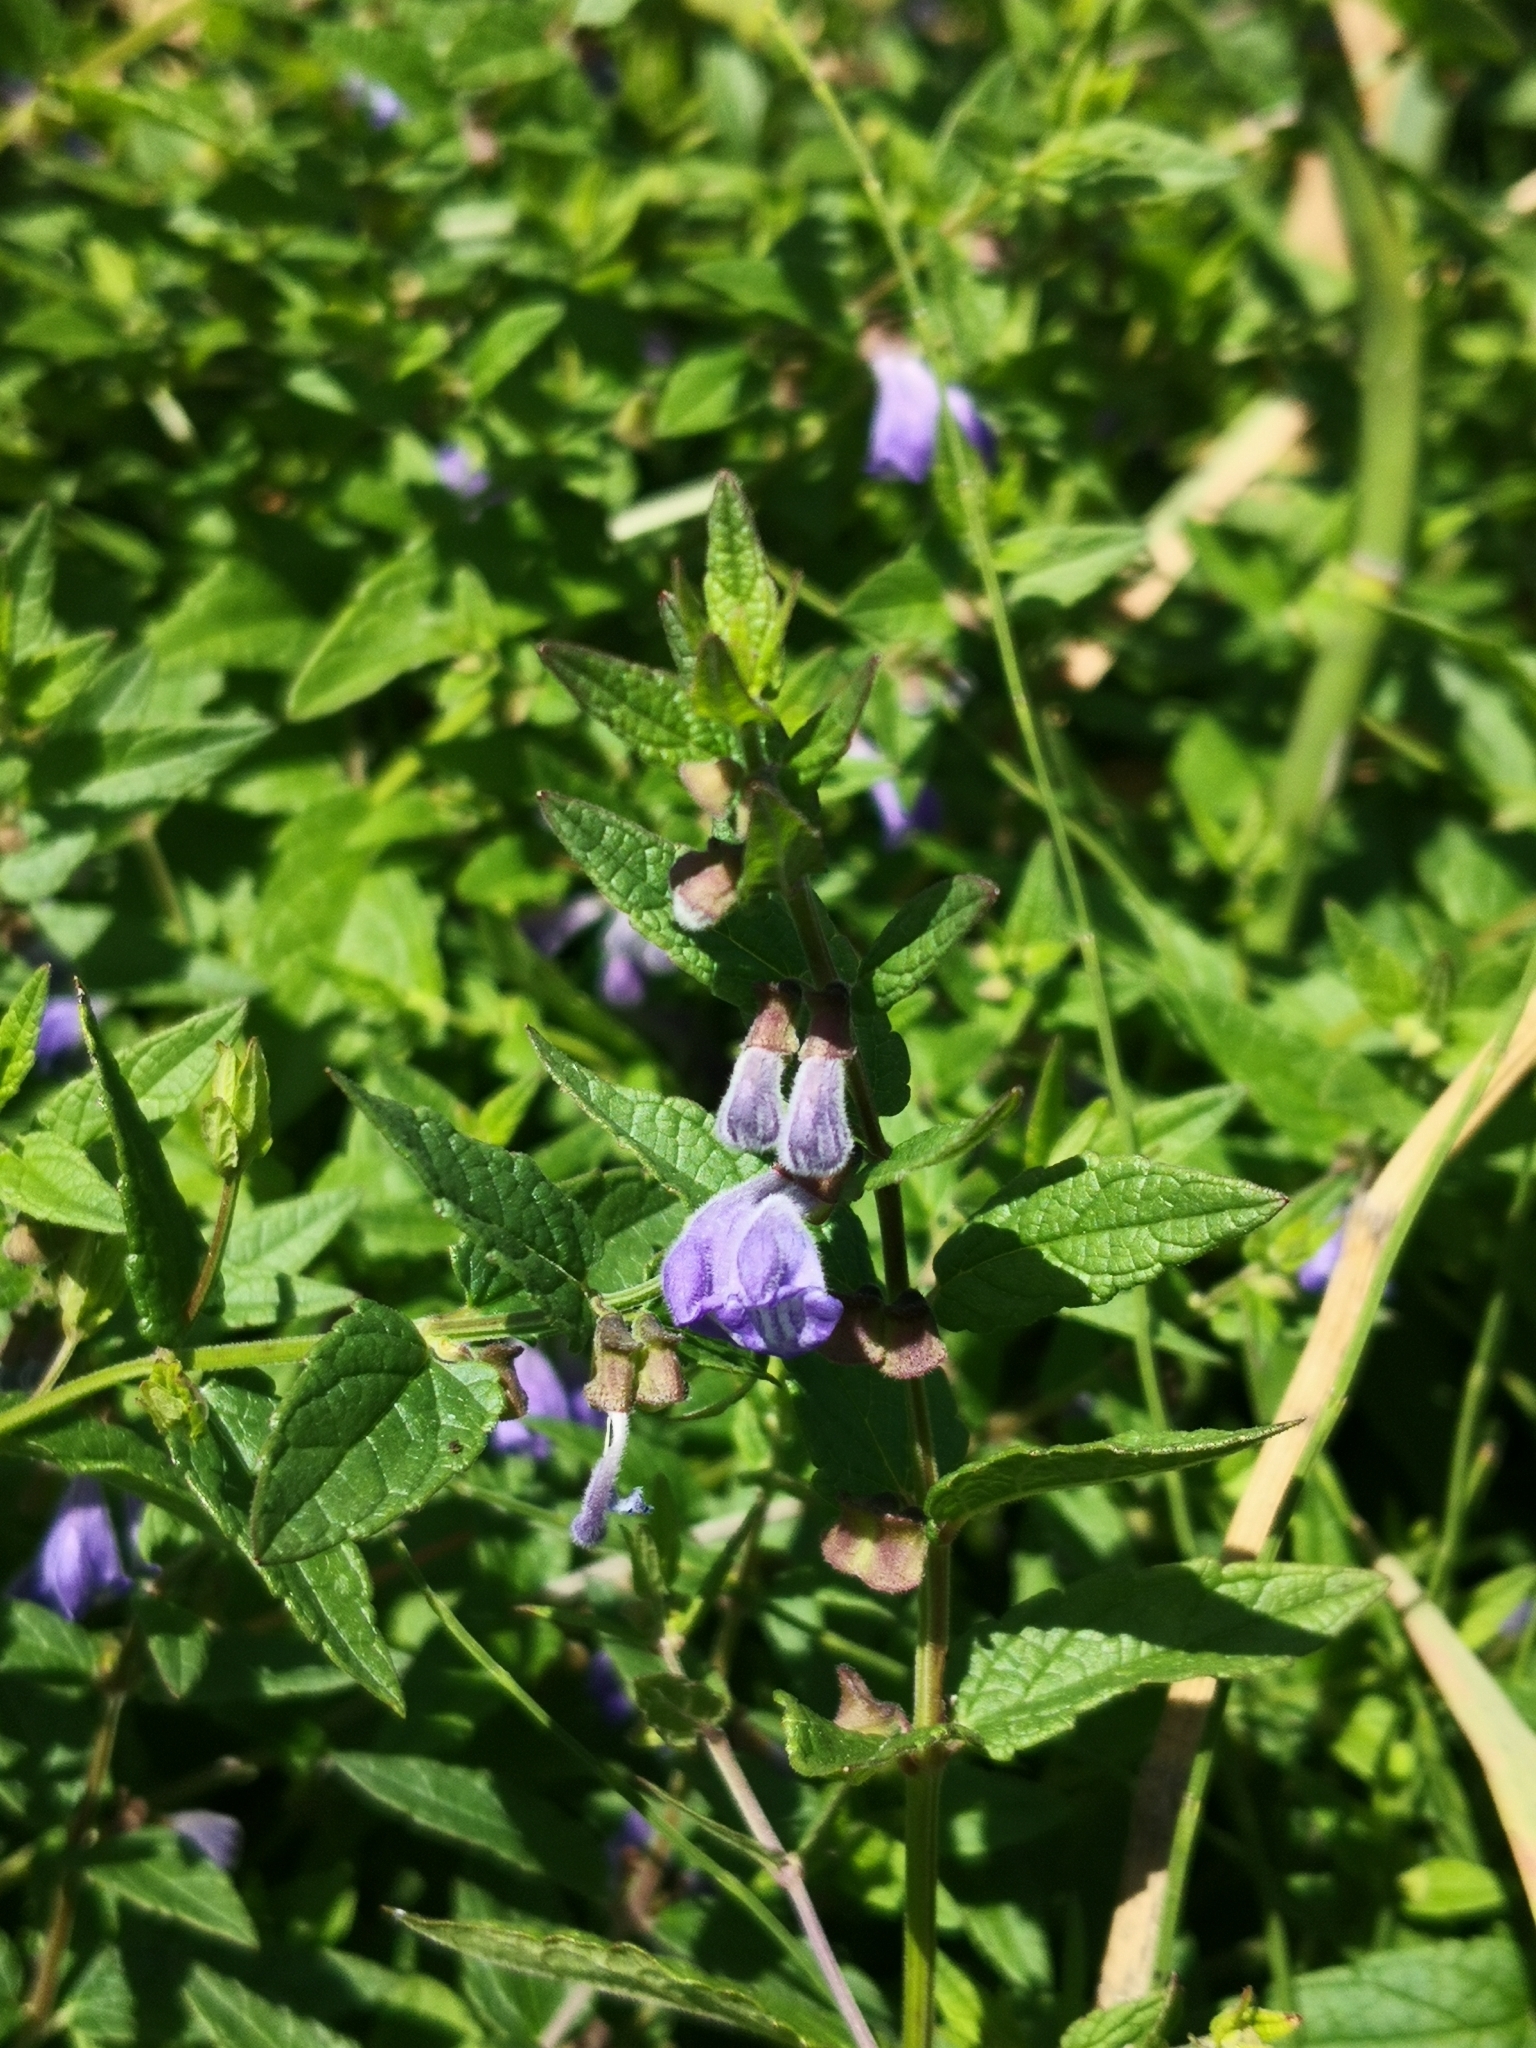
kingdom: Plantae
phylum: Tracheophyta
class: Magnoliopsida
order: Lamiales
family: Lamiaceae
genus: Scutellaria
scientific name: Scutellaria galericulata
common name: Skullcap
